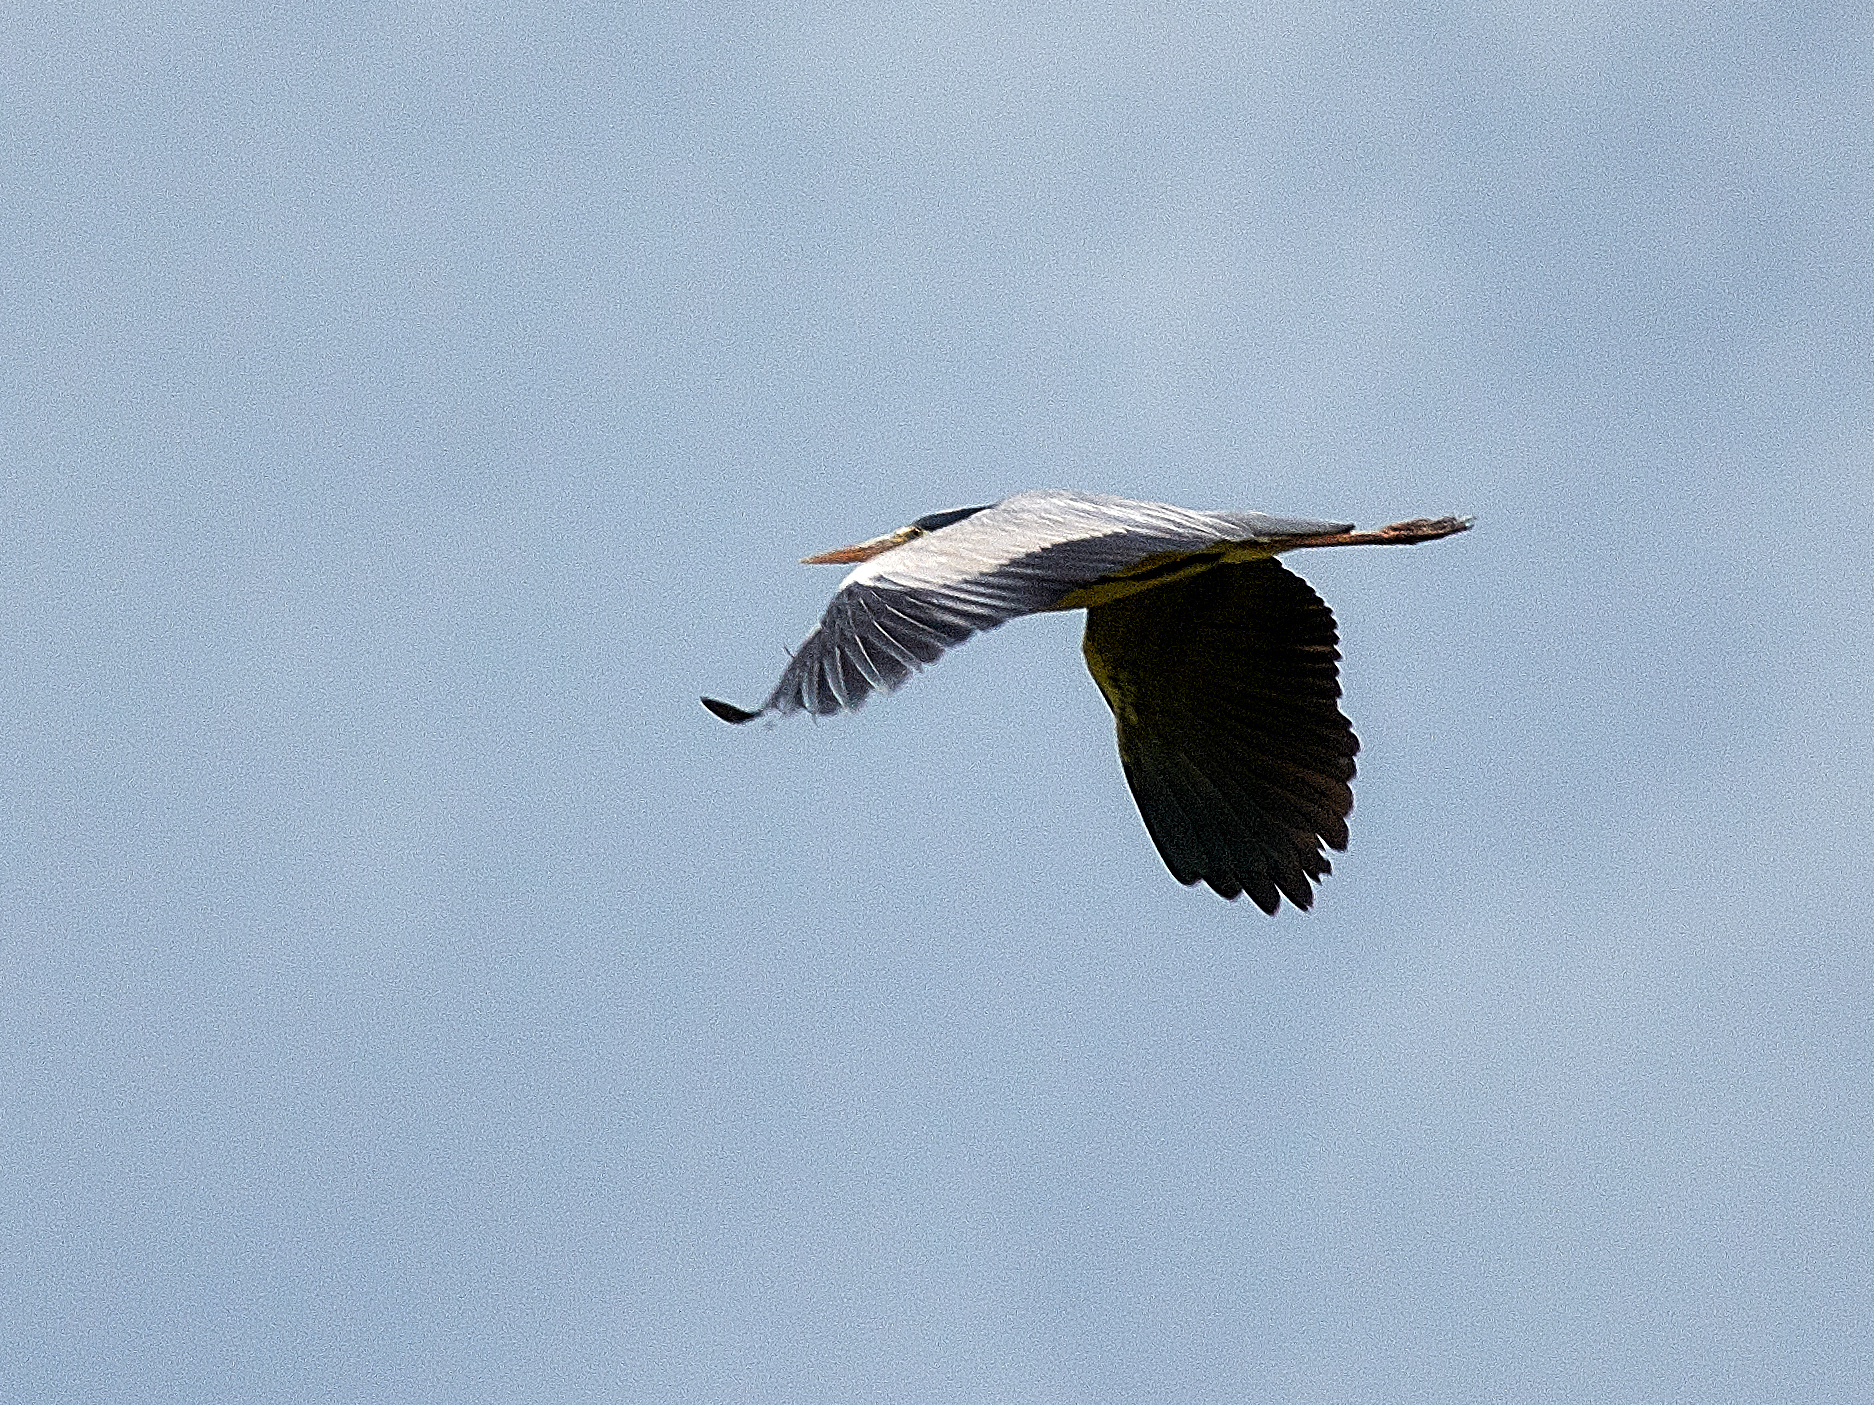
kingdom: Animalia
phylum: Chordata
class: Aves
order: Pelecaniformes
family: Ardeidae
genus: Ardea
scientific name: Ardea cinerea
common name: Grey heron
